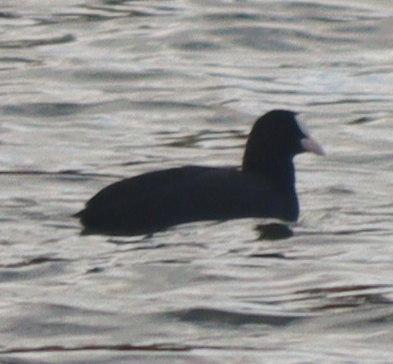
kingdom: Animalia
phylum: Chordata
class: Aves
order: Gruiformes
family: Rallidae
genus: Fulica
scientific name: Fulica atra
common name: Eurasian coot
